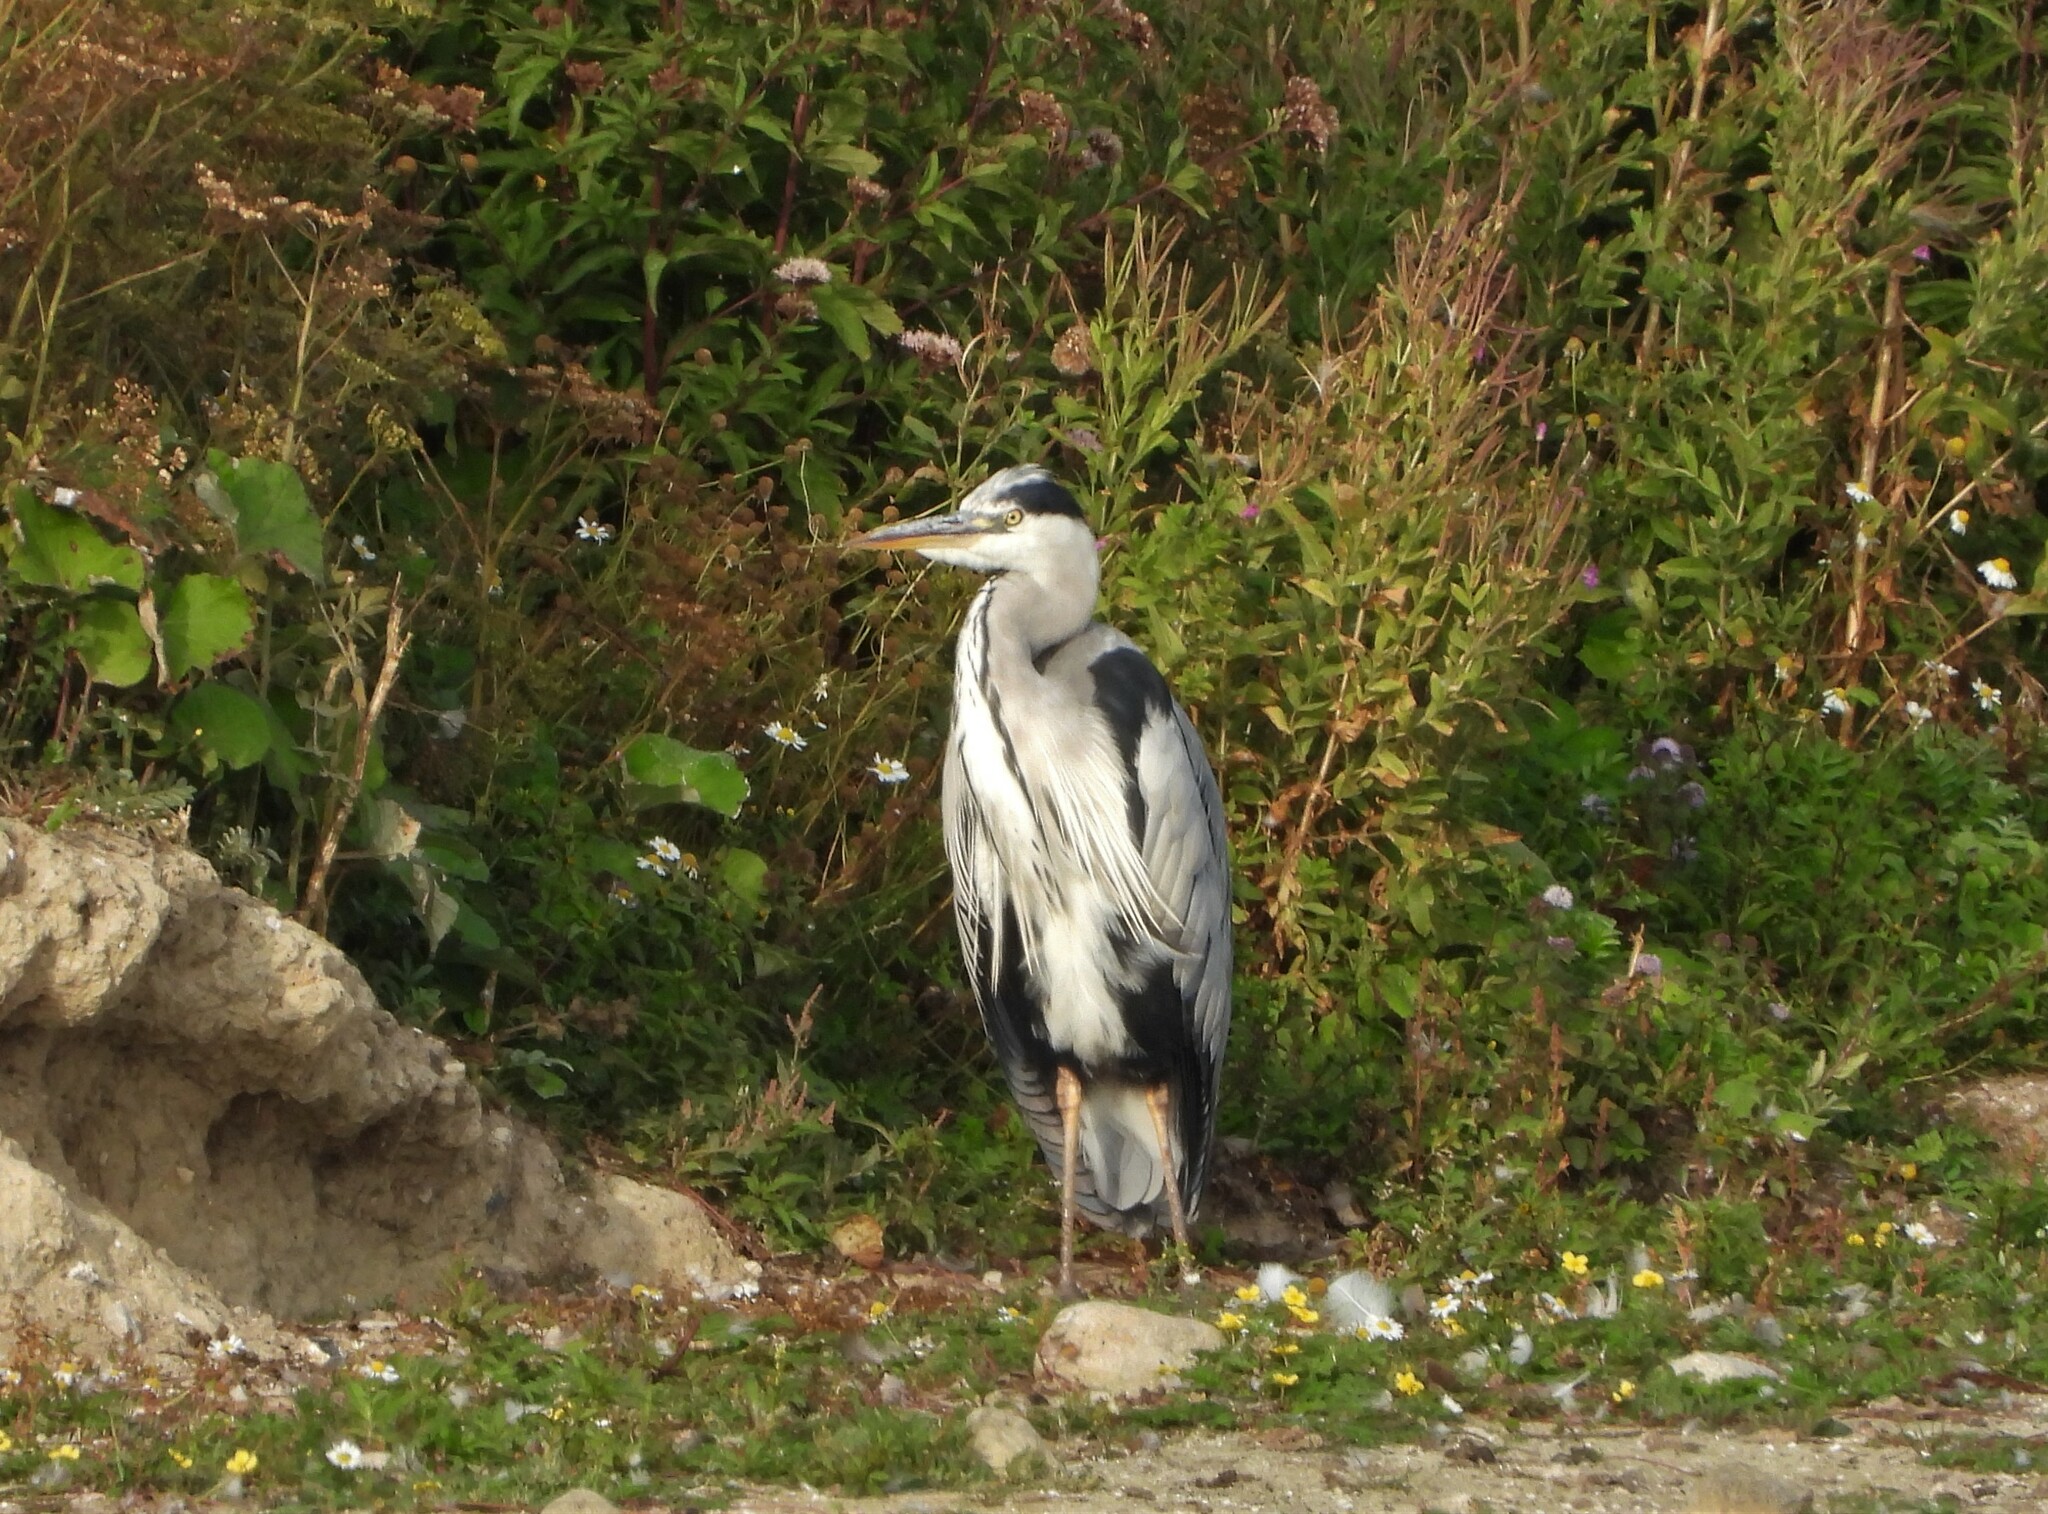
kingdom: Animalia
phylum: Chordata
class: Aves
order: Pelecaniformes
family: Ardeidae
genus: Ardea
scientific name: Ardea cinerea
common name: Grey heron
